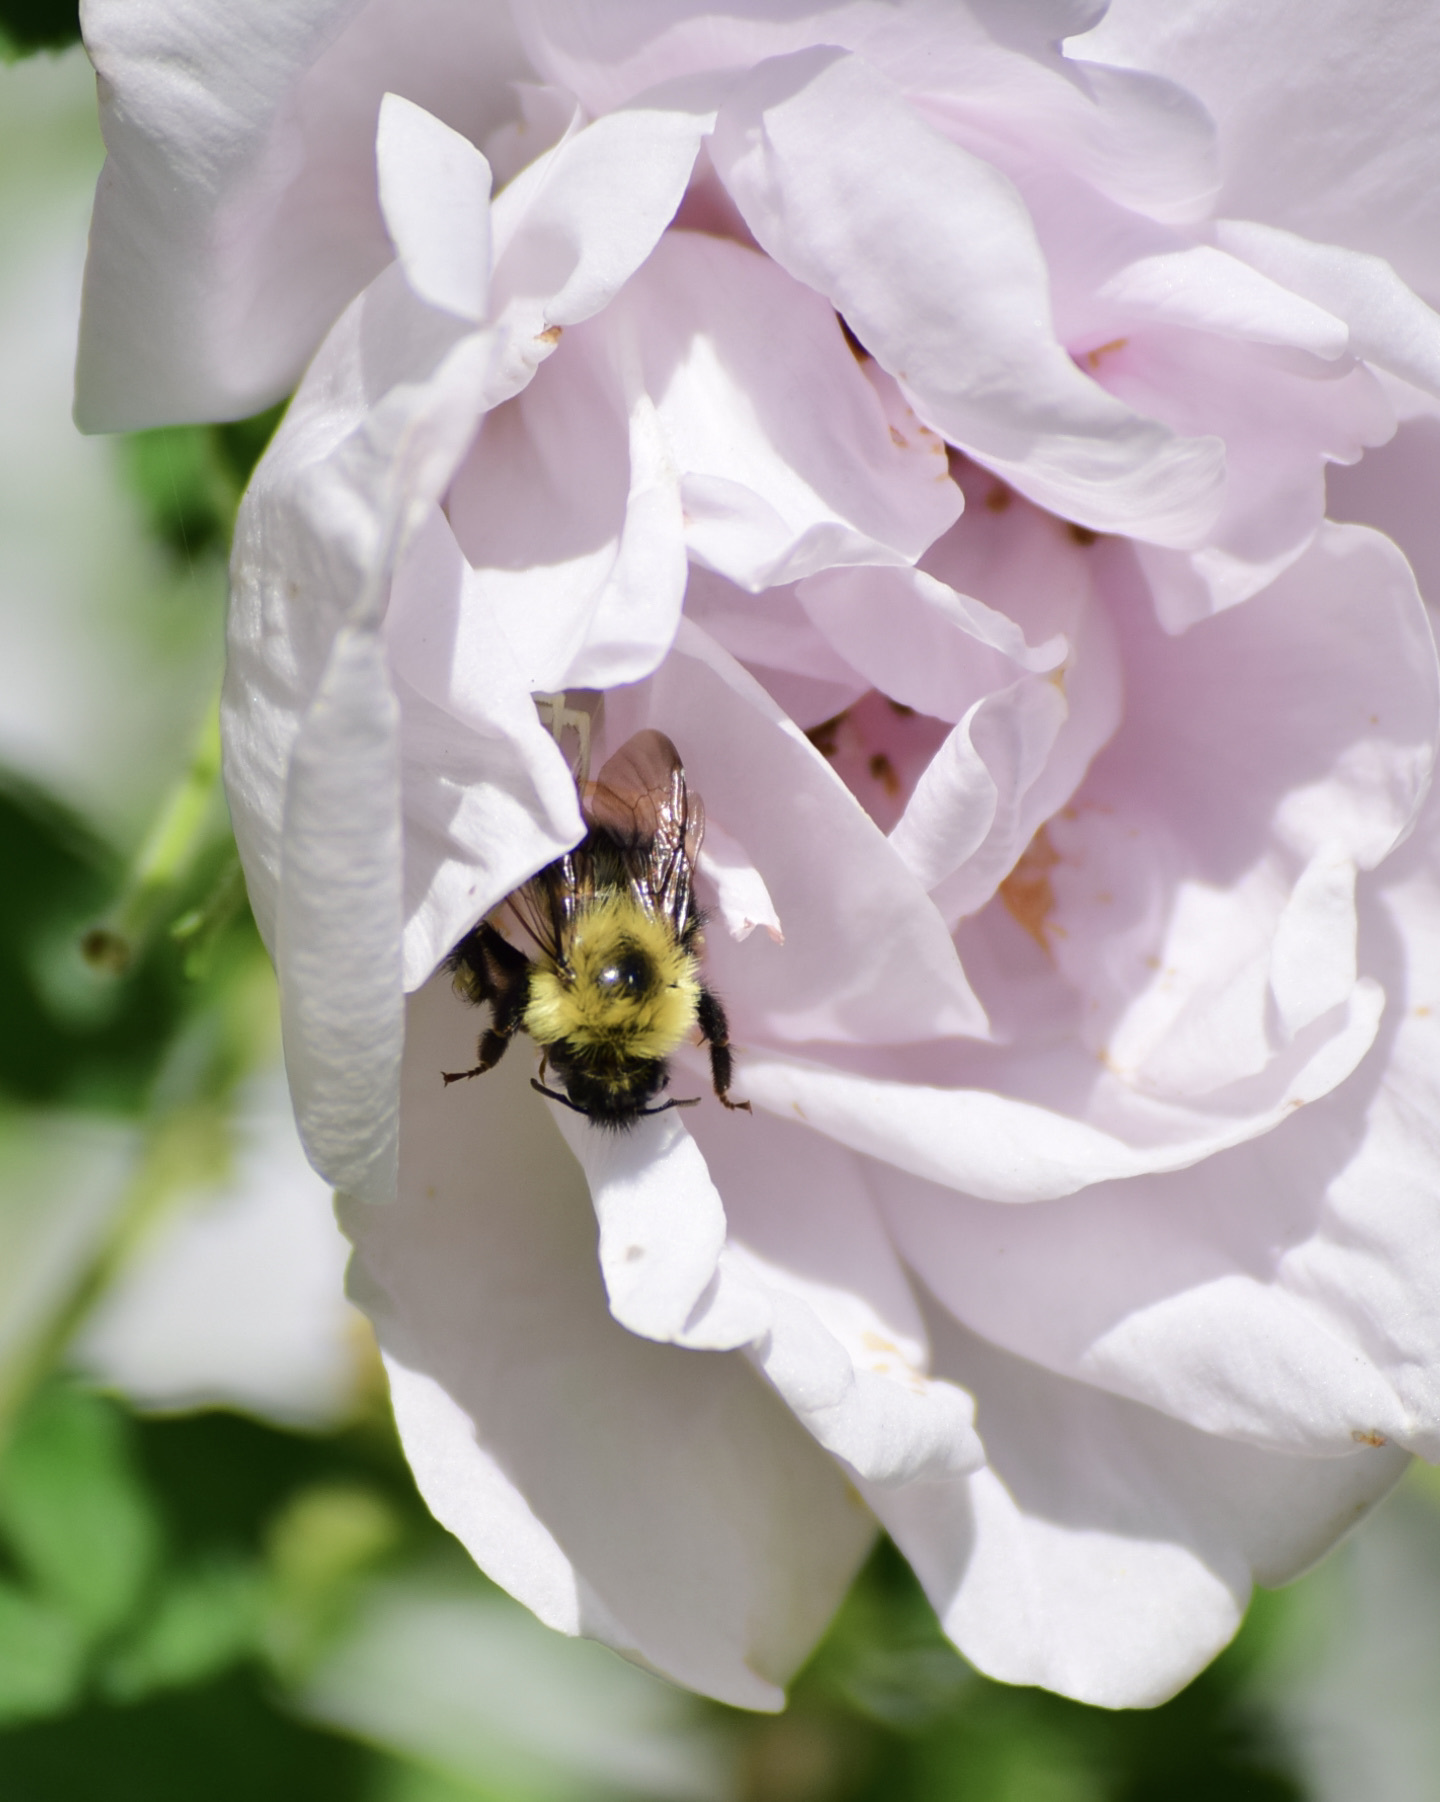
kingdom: Animalia
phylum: Arthropoda
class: Insecta
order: Hymenoptera
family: Apidae
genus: Bombus
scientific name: Bombus bimaculatus
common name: Two-spotted bumble bee
